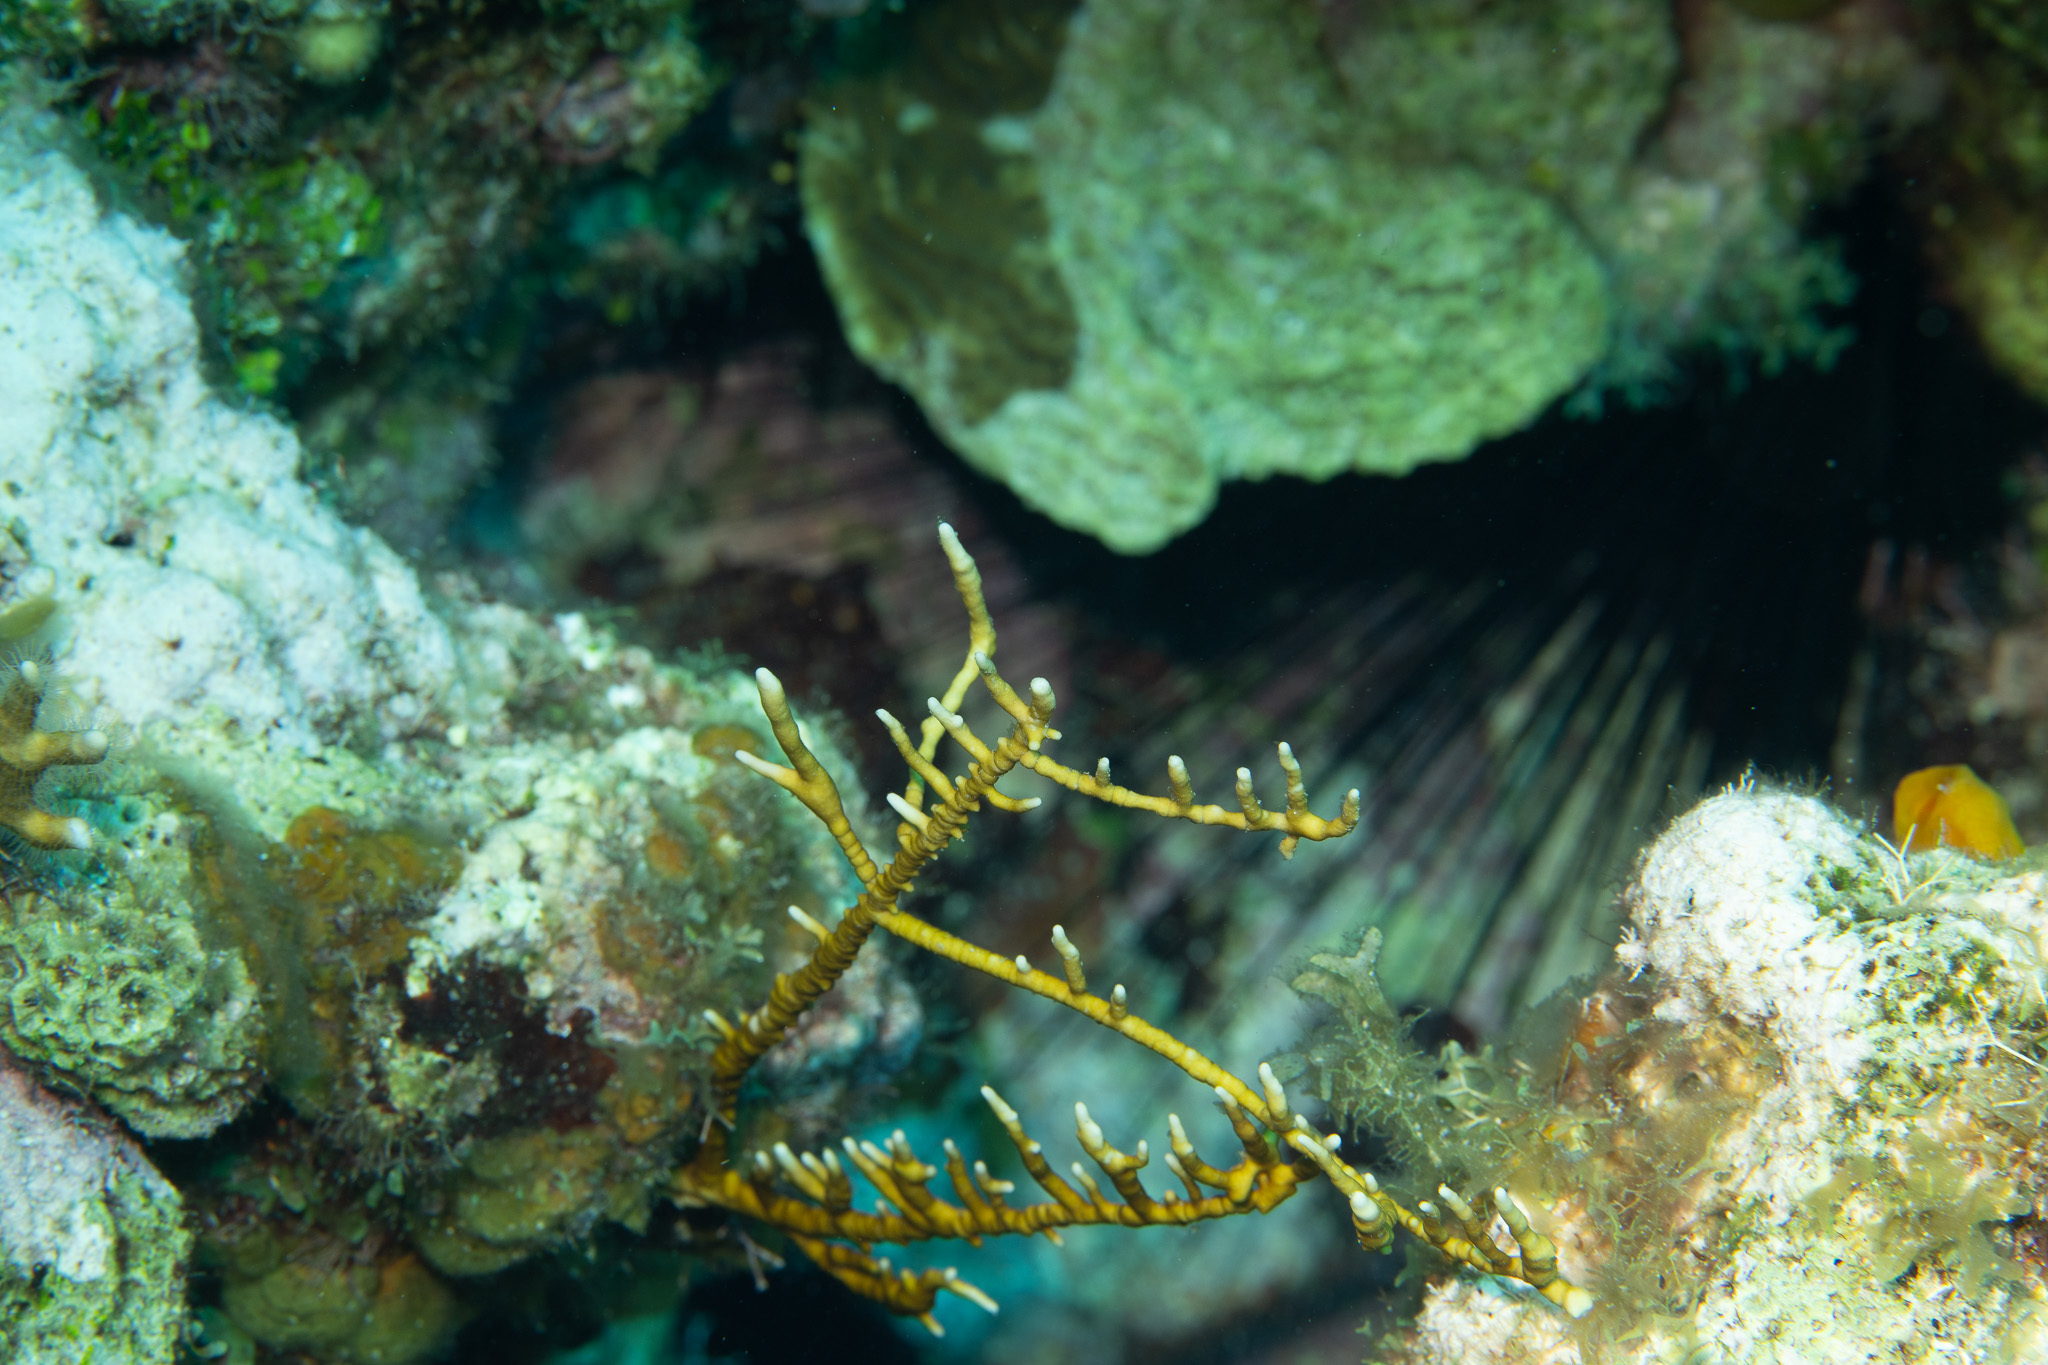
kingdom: Animalia
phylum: Cnidaria
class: Hydrozoa
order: Anthoathecata
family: Milleporidae
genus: Millepora
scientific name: Millepora alcicornis
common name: Branching fire coral
